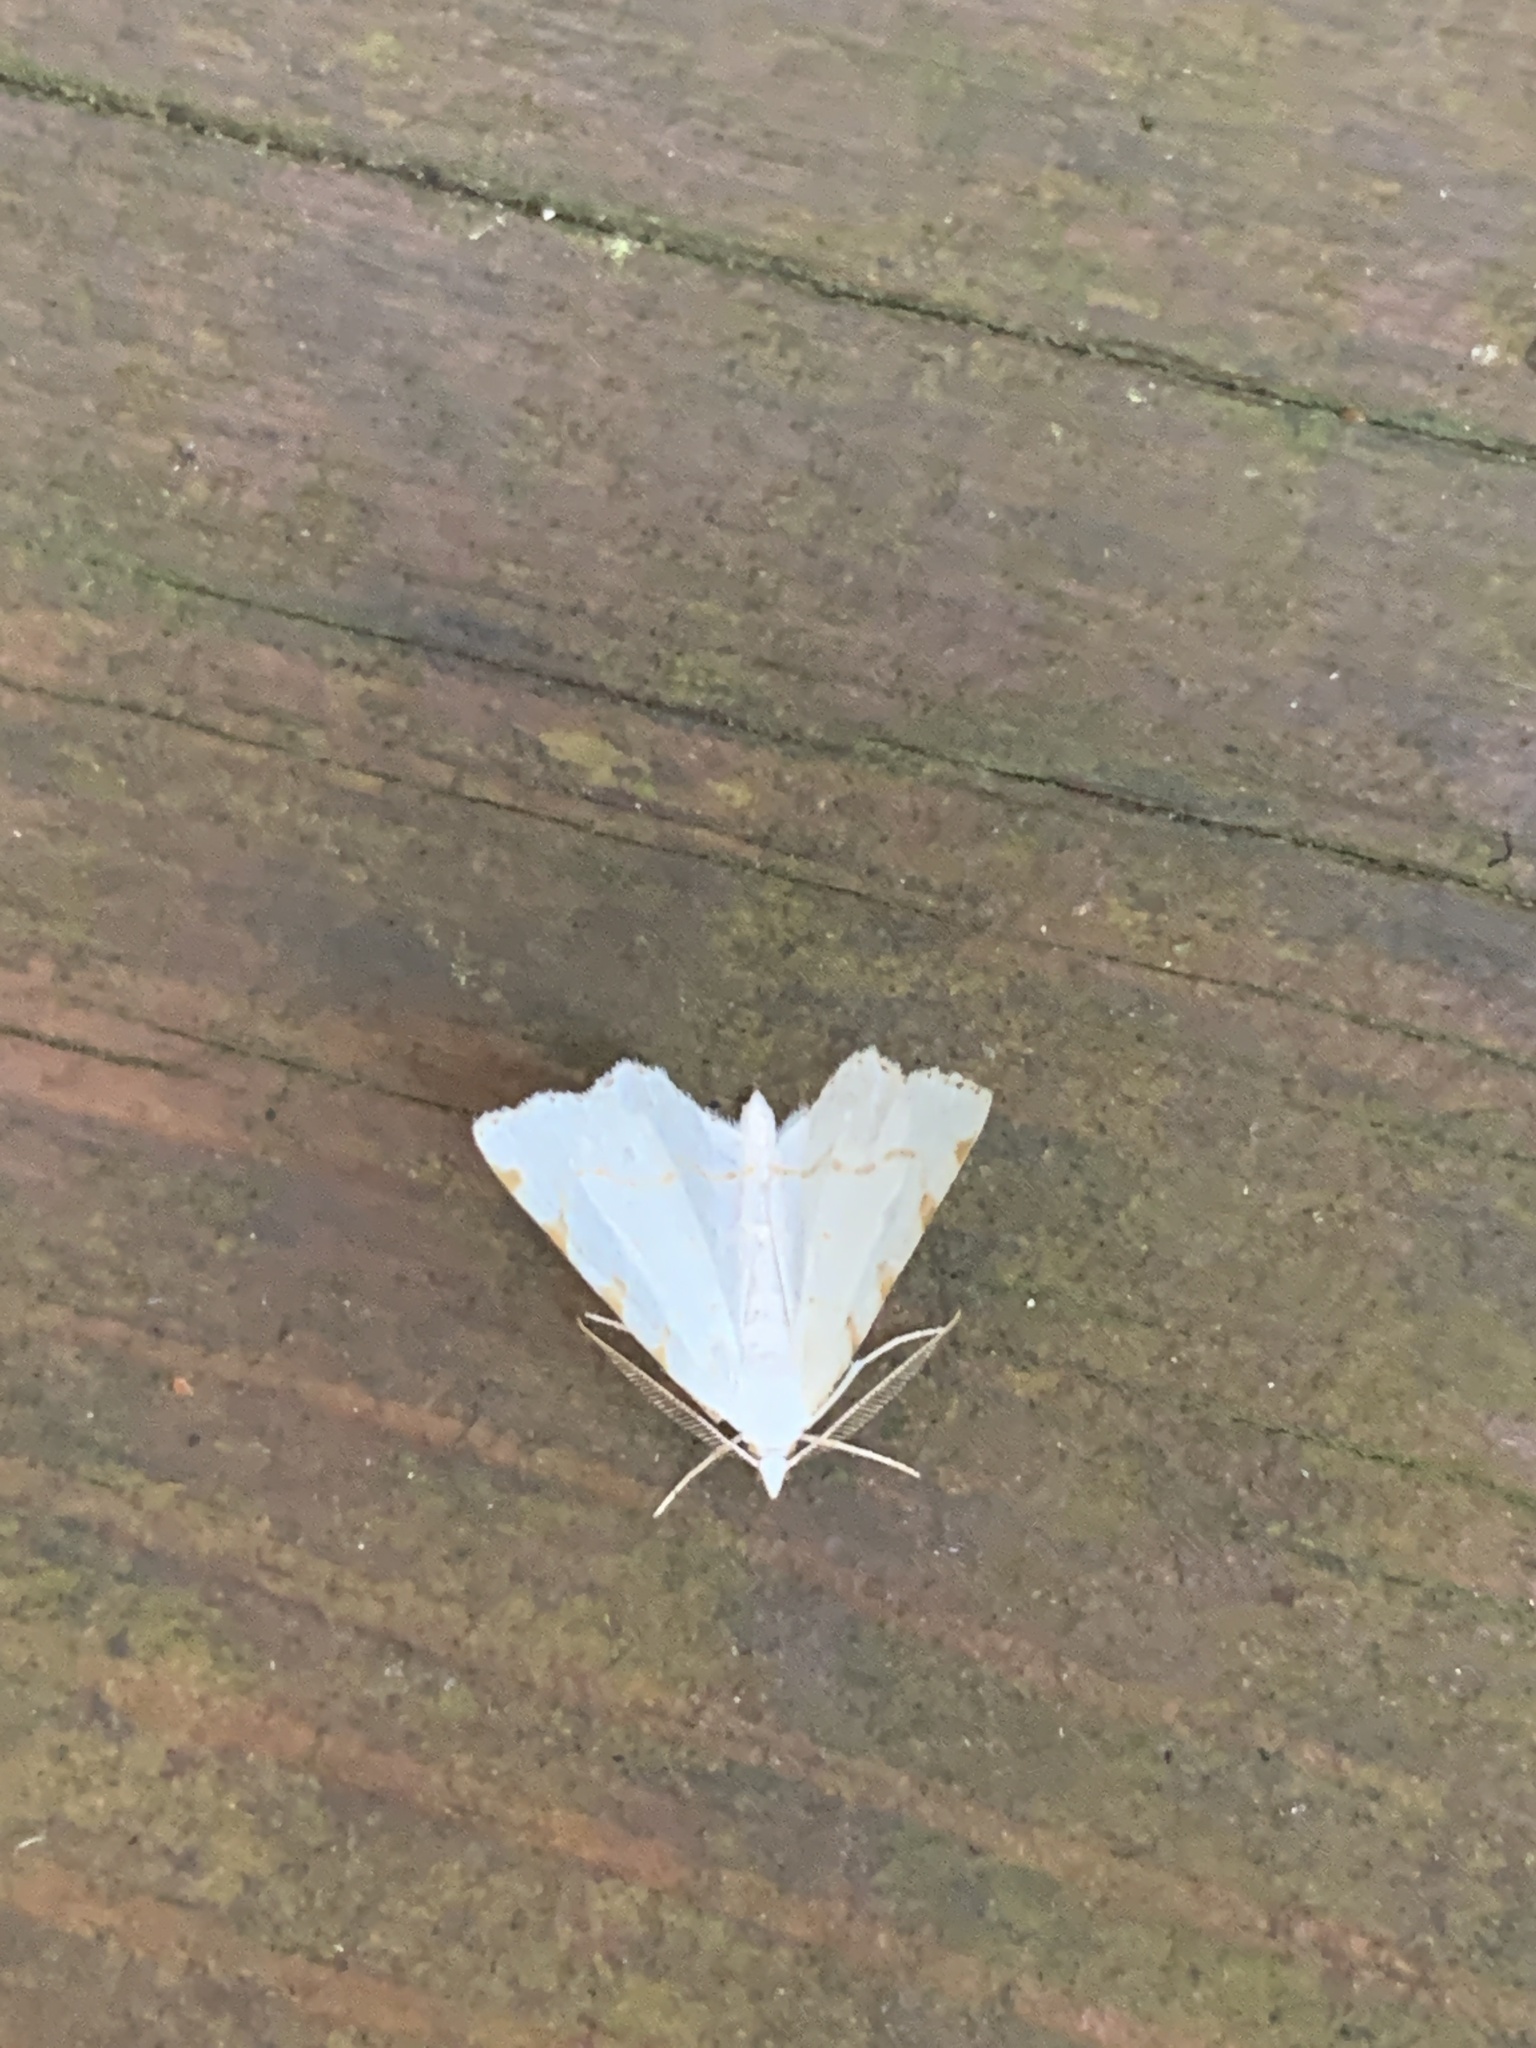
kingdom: Animalia
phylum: Arthropoda
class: Insecta
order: Lepidoptera
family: Geometridae
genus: Macaria
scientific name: Macaria pustularia
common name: Lesser maple spanworm moth
